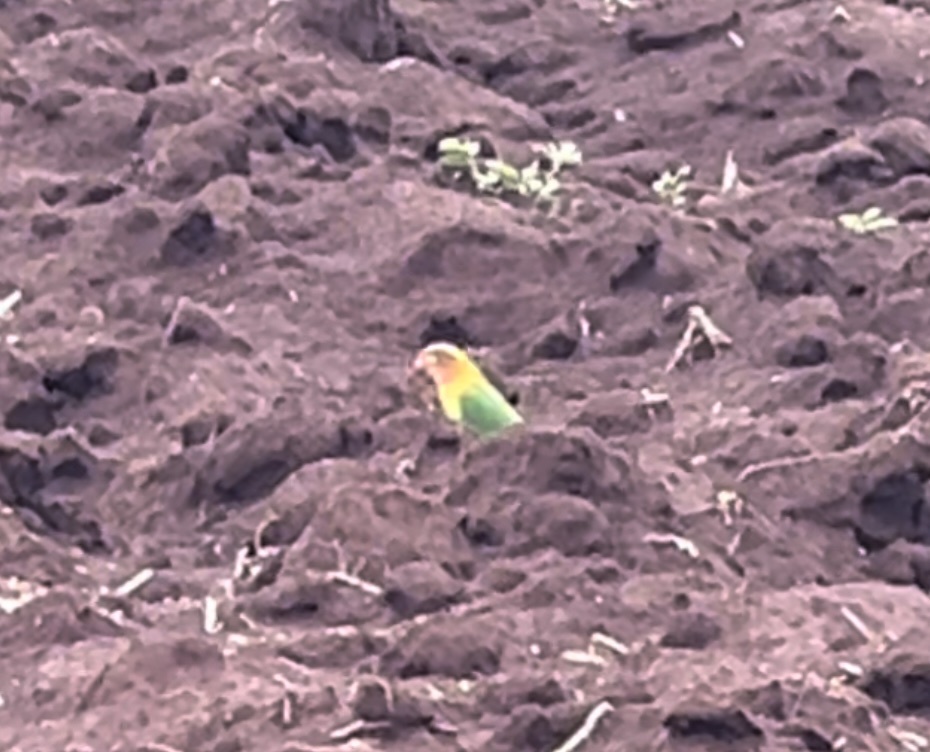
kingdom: Animalia
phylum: Chordata
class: Aves
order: Psittaciformes
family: Psittacidae
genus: Agapornis
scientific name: Agapornis fischeri
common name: Fischer's lovebird
